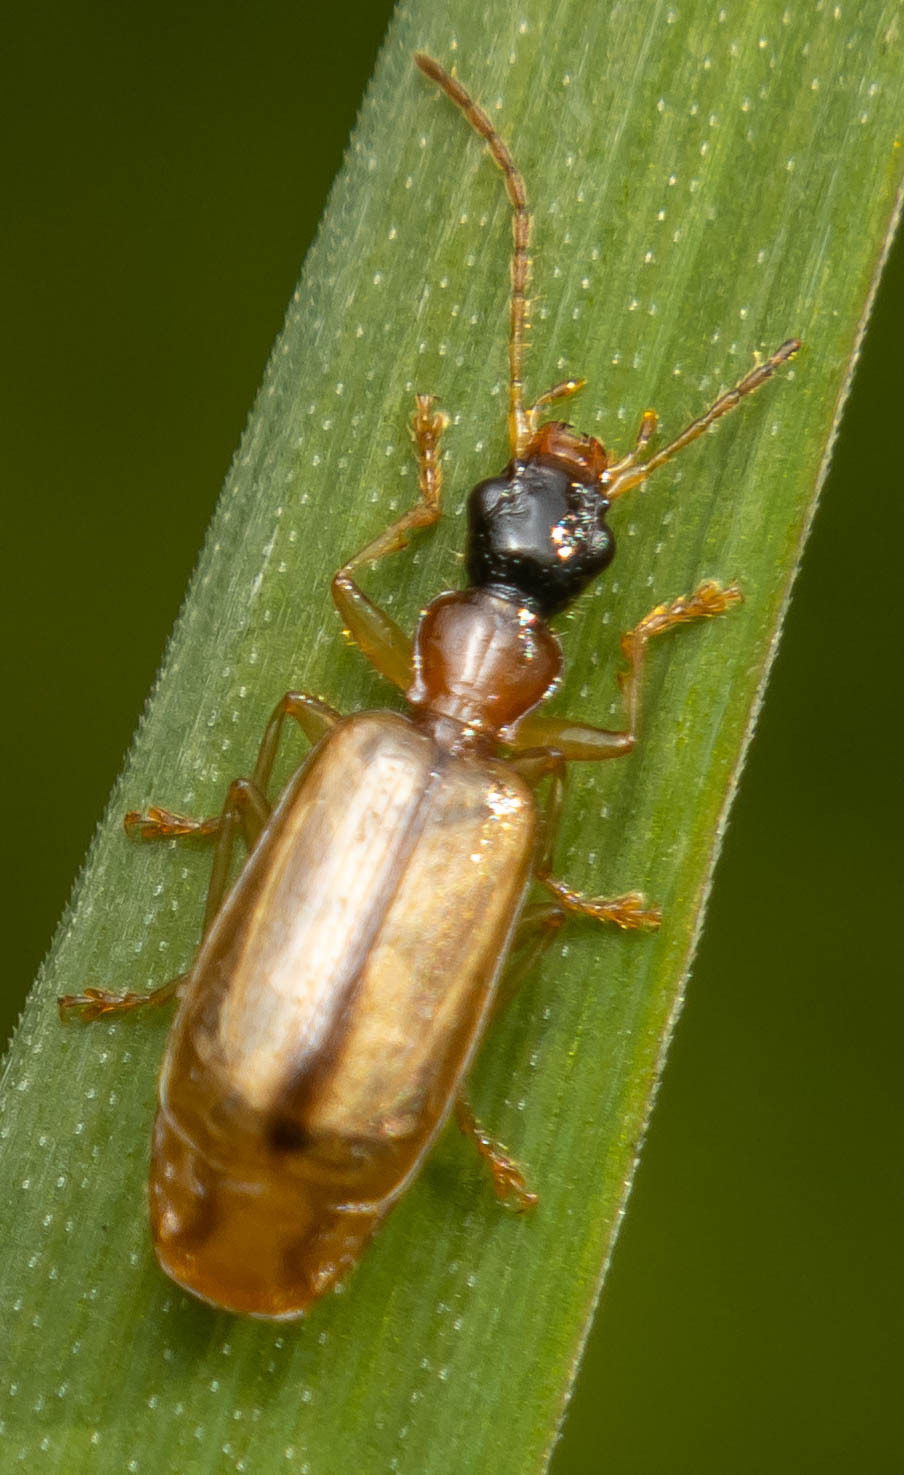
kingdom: Animalia
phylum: Arthropoda
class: Insecta
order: Coleoptera
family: Carabidae
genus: Demetrias
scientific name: Demetrias atricapillus
